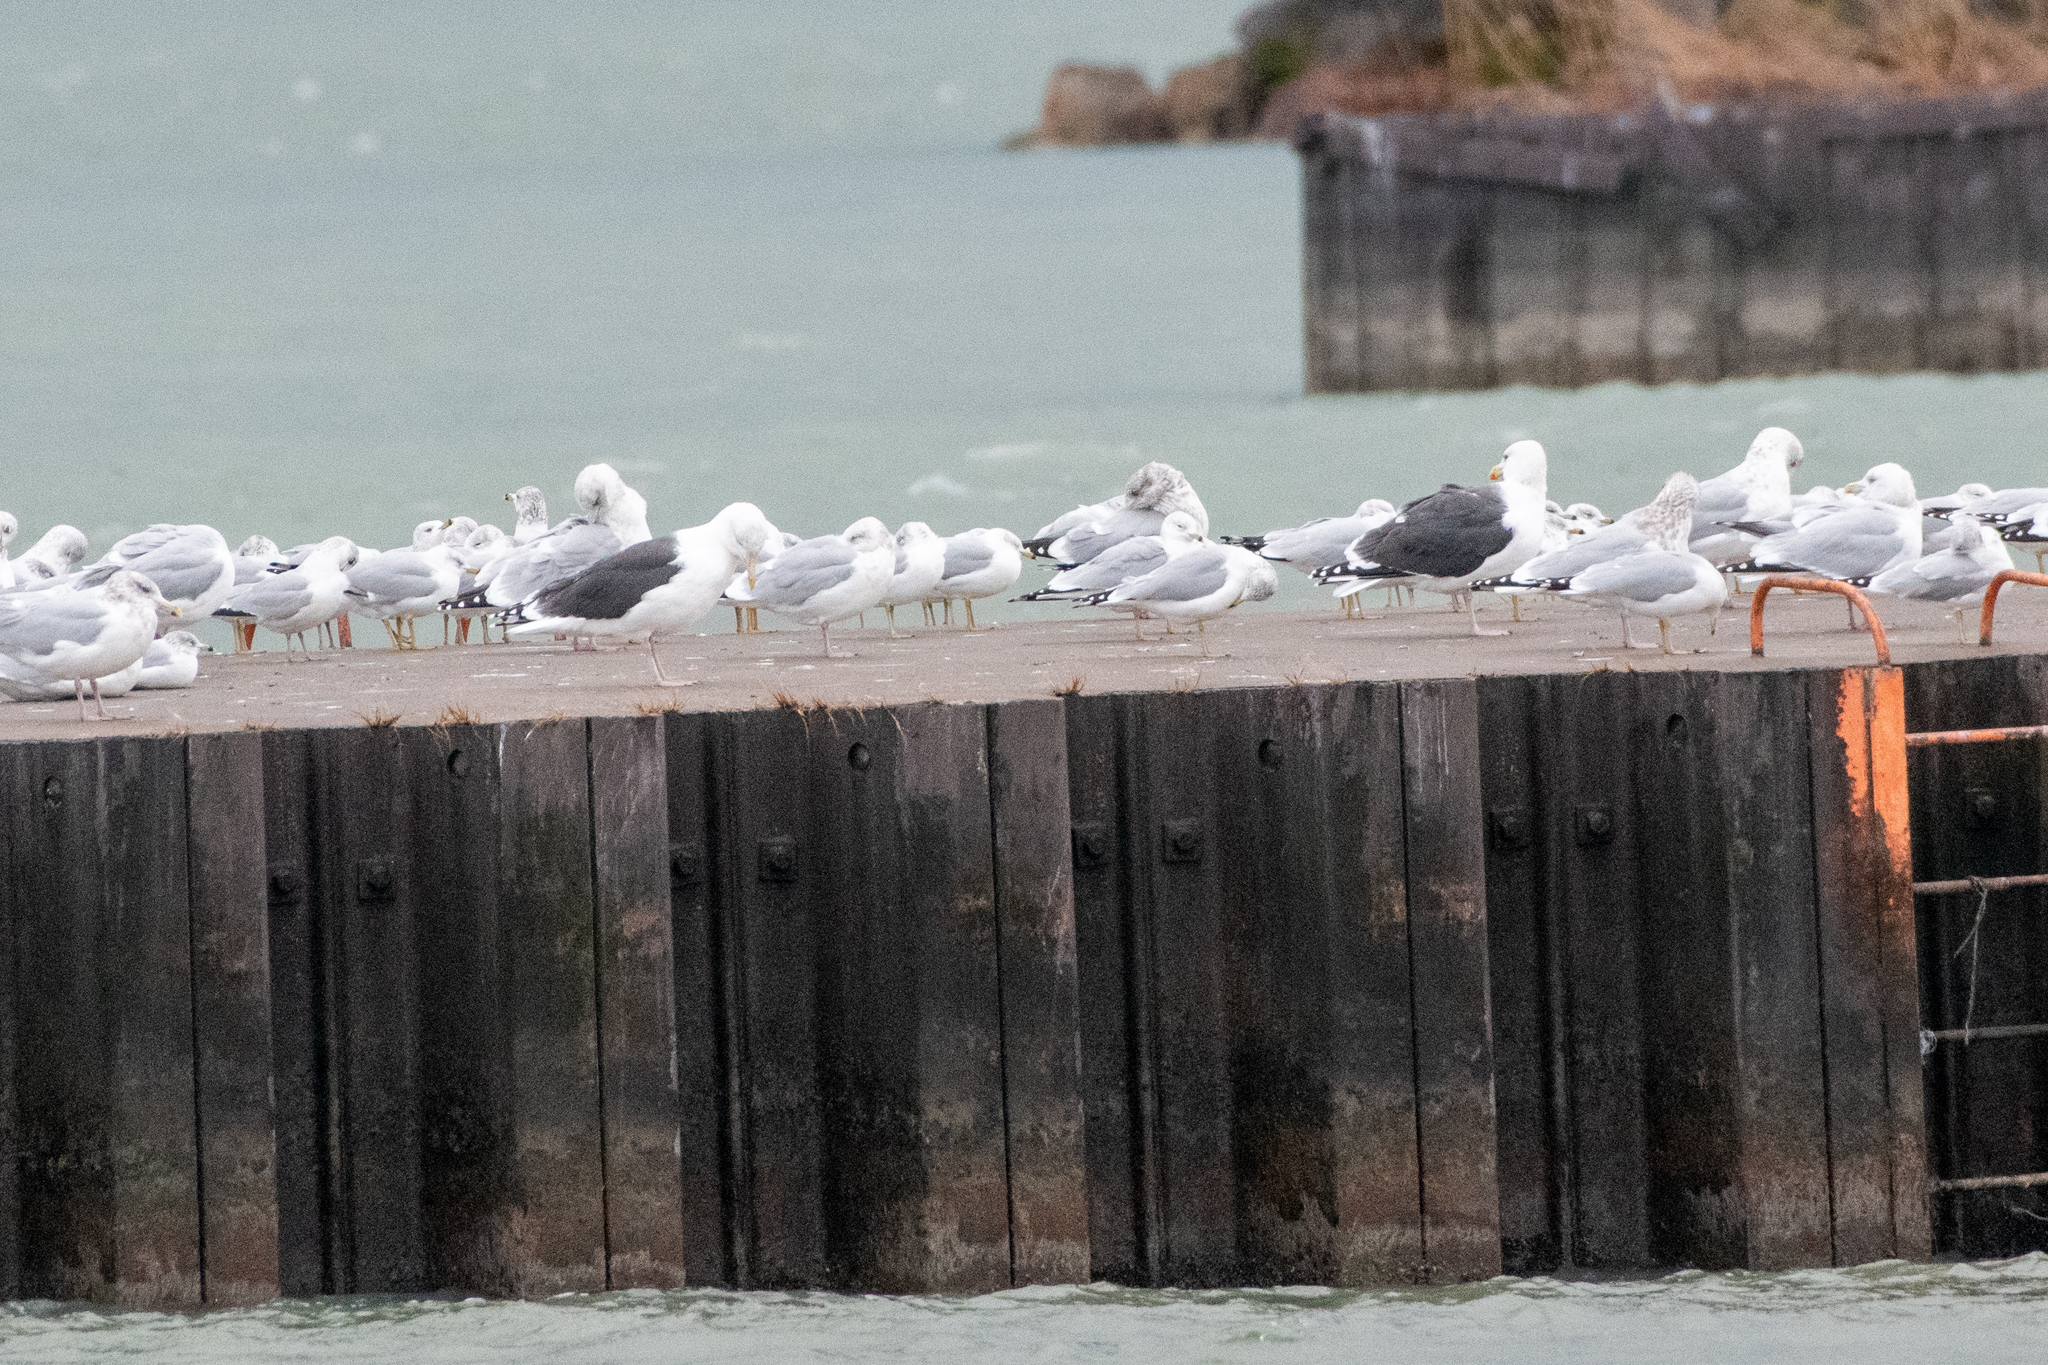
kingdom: Animalia
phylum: Chordata
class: Aves
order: Charadriiformes
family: Laridae
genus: Larus
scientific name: Larus marinus
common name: Great black-backed gull
